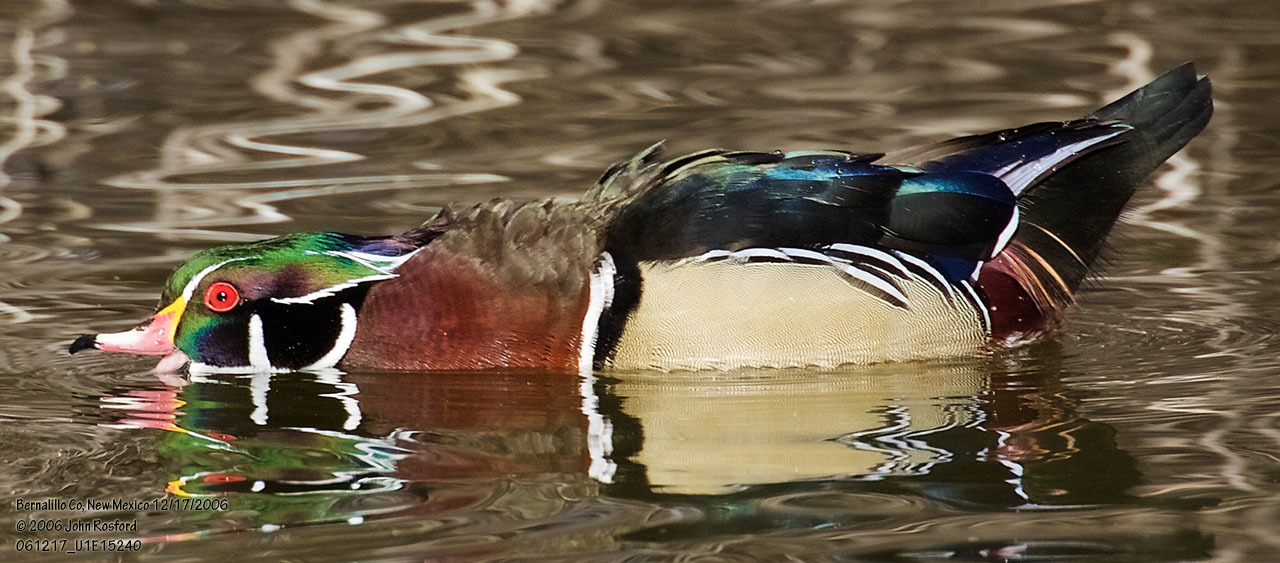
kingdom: Animalia
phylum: Chordata
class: Aves
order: Anseriformes
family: Anatidae
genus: Aix
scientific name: Aix sponsa
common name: Wood duck
